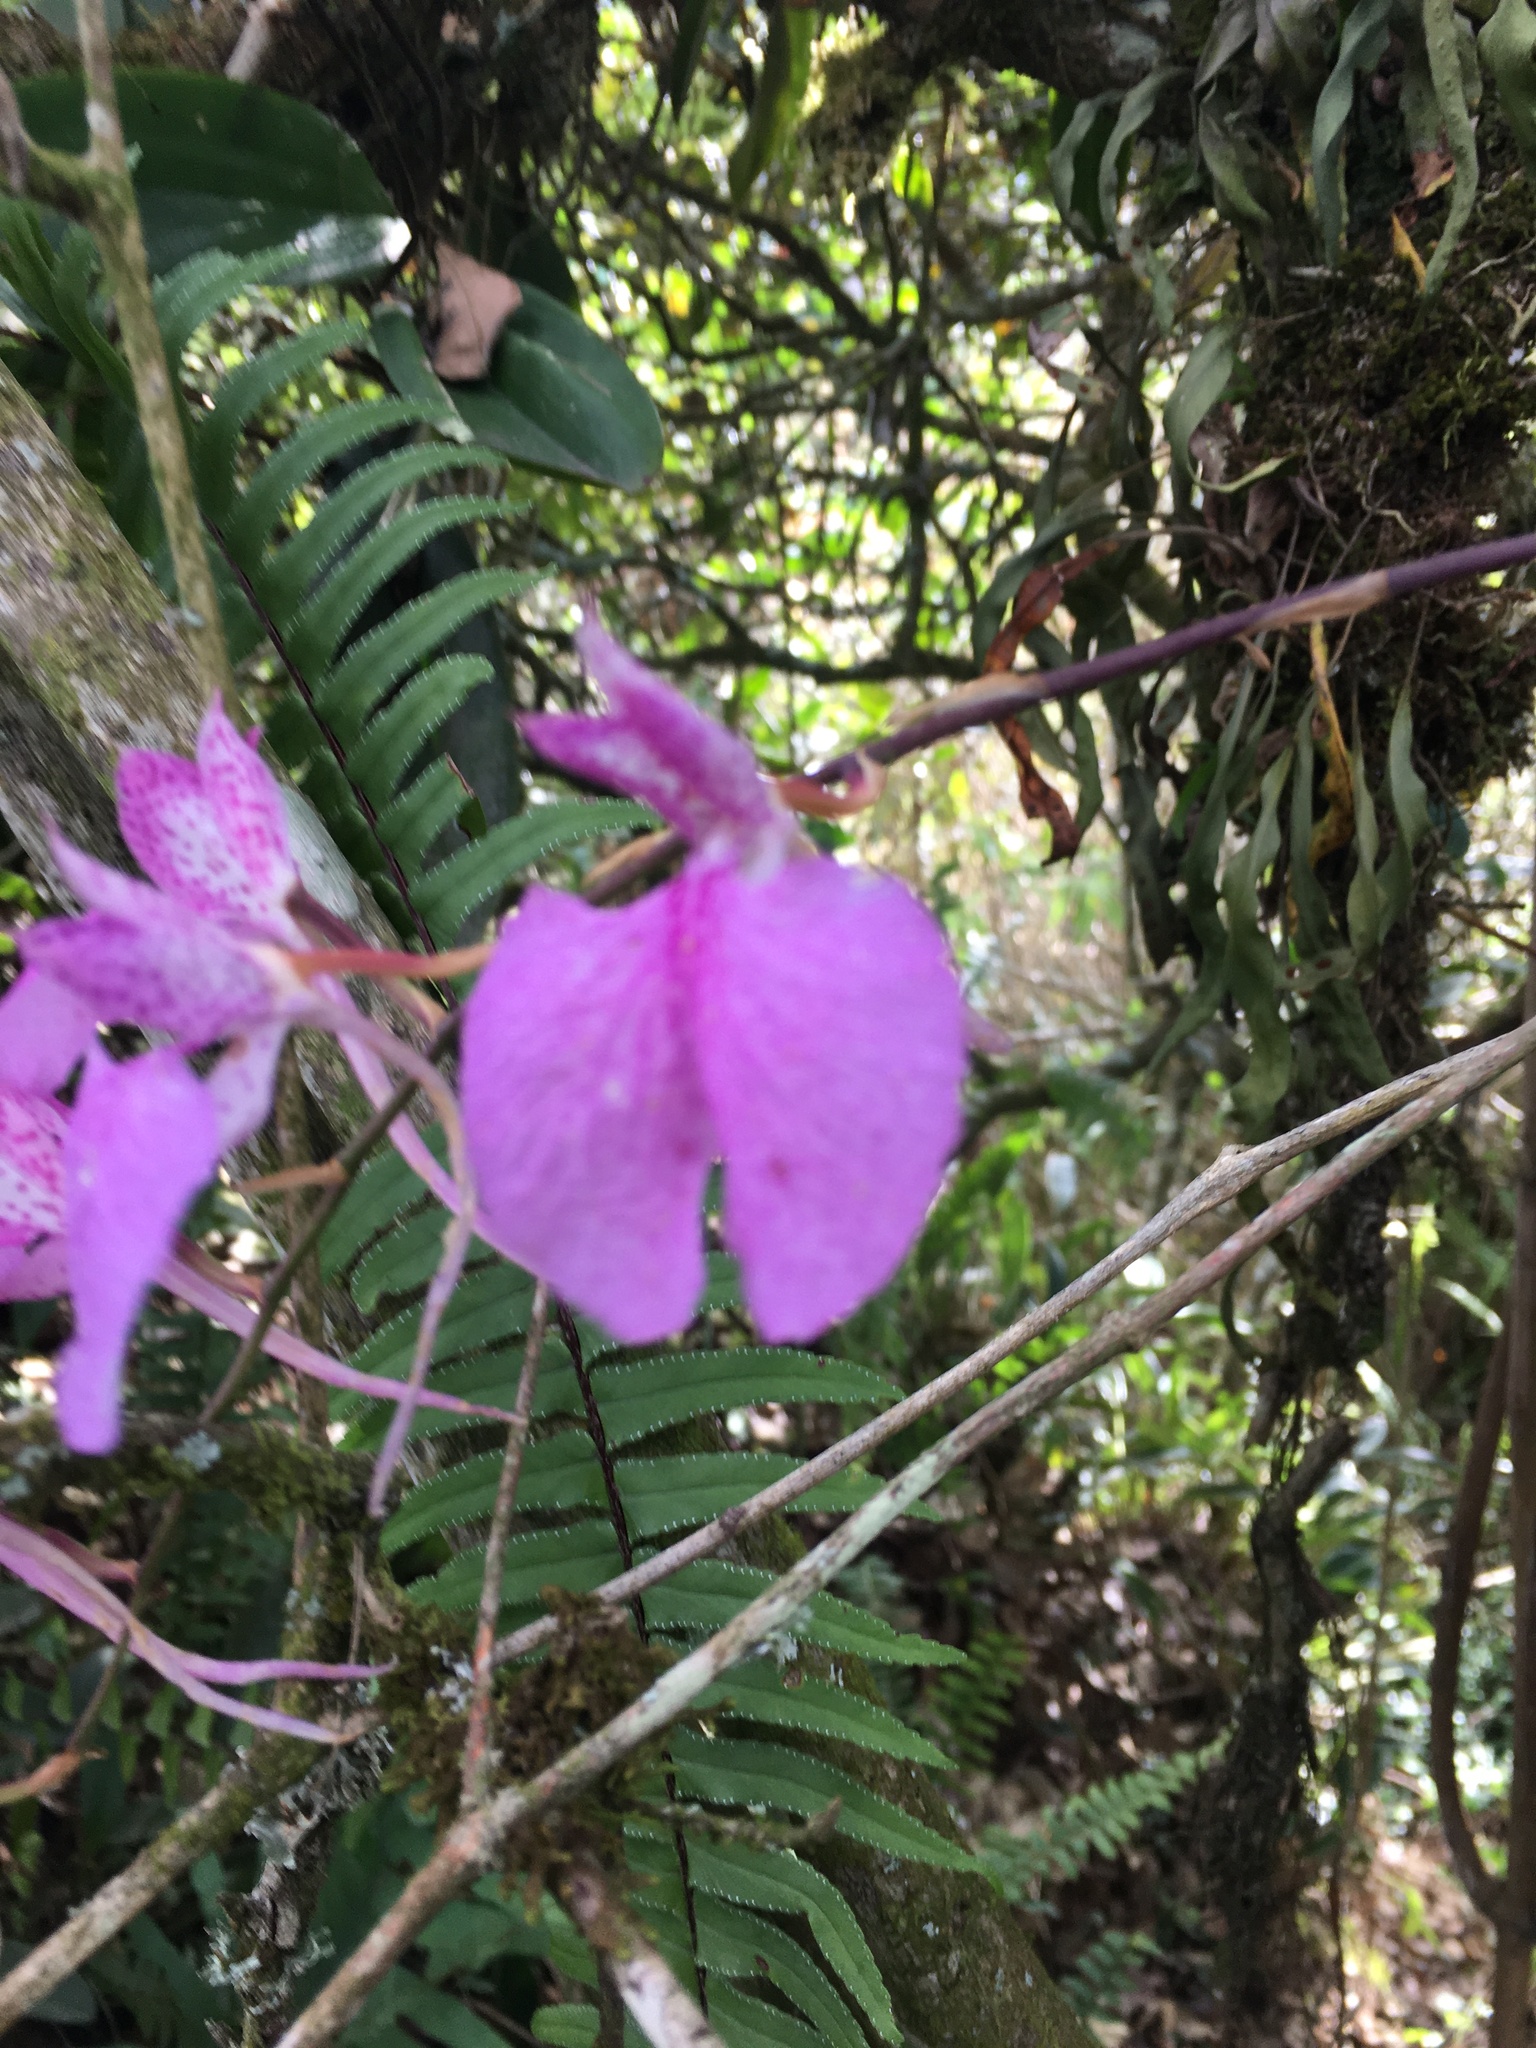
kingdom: Plantae
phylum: Tracheophyta
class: Liliopsida
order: Asparagales
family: Orchidaceae
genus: Comparettia
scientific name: Comparettia macroplectron
